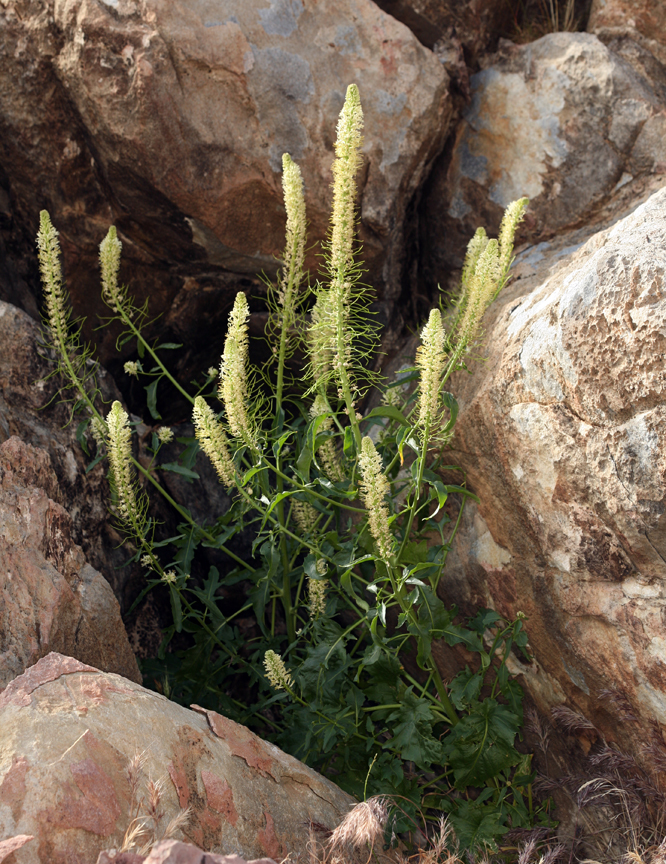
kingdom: Plantae
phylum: Tracheophyta
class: Magnoliopsida
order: Brassicales
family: Brassicaceae
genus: Thelypodium
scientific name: Thelypodium laciniatum
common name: Cut-leaved thelypody
